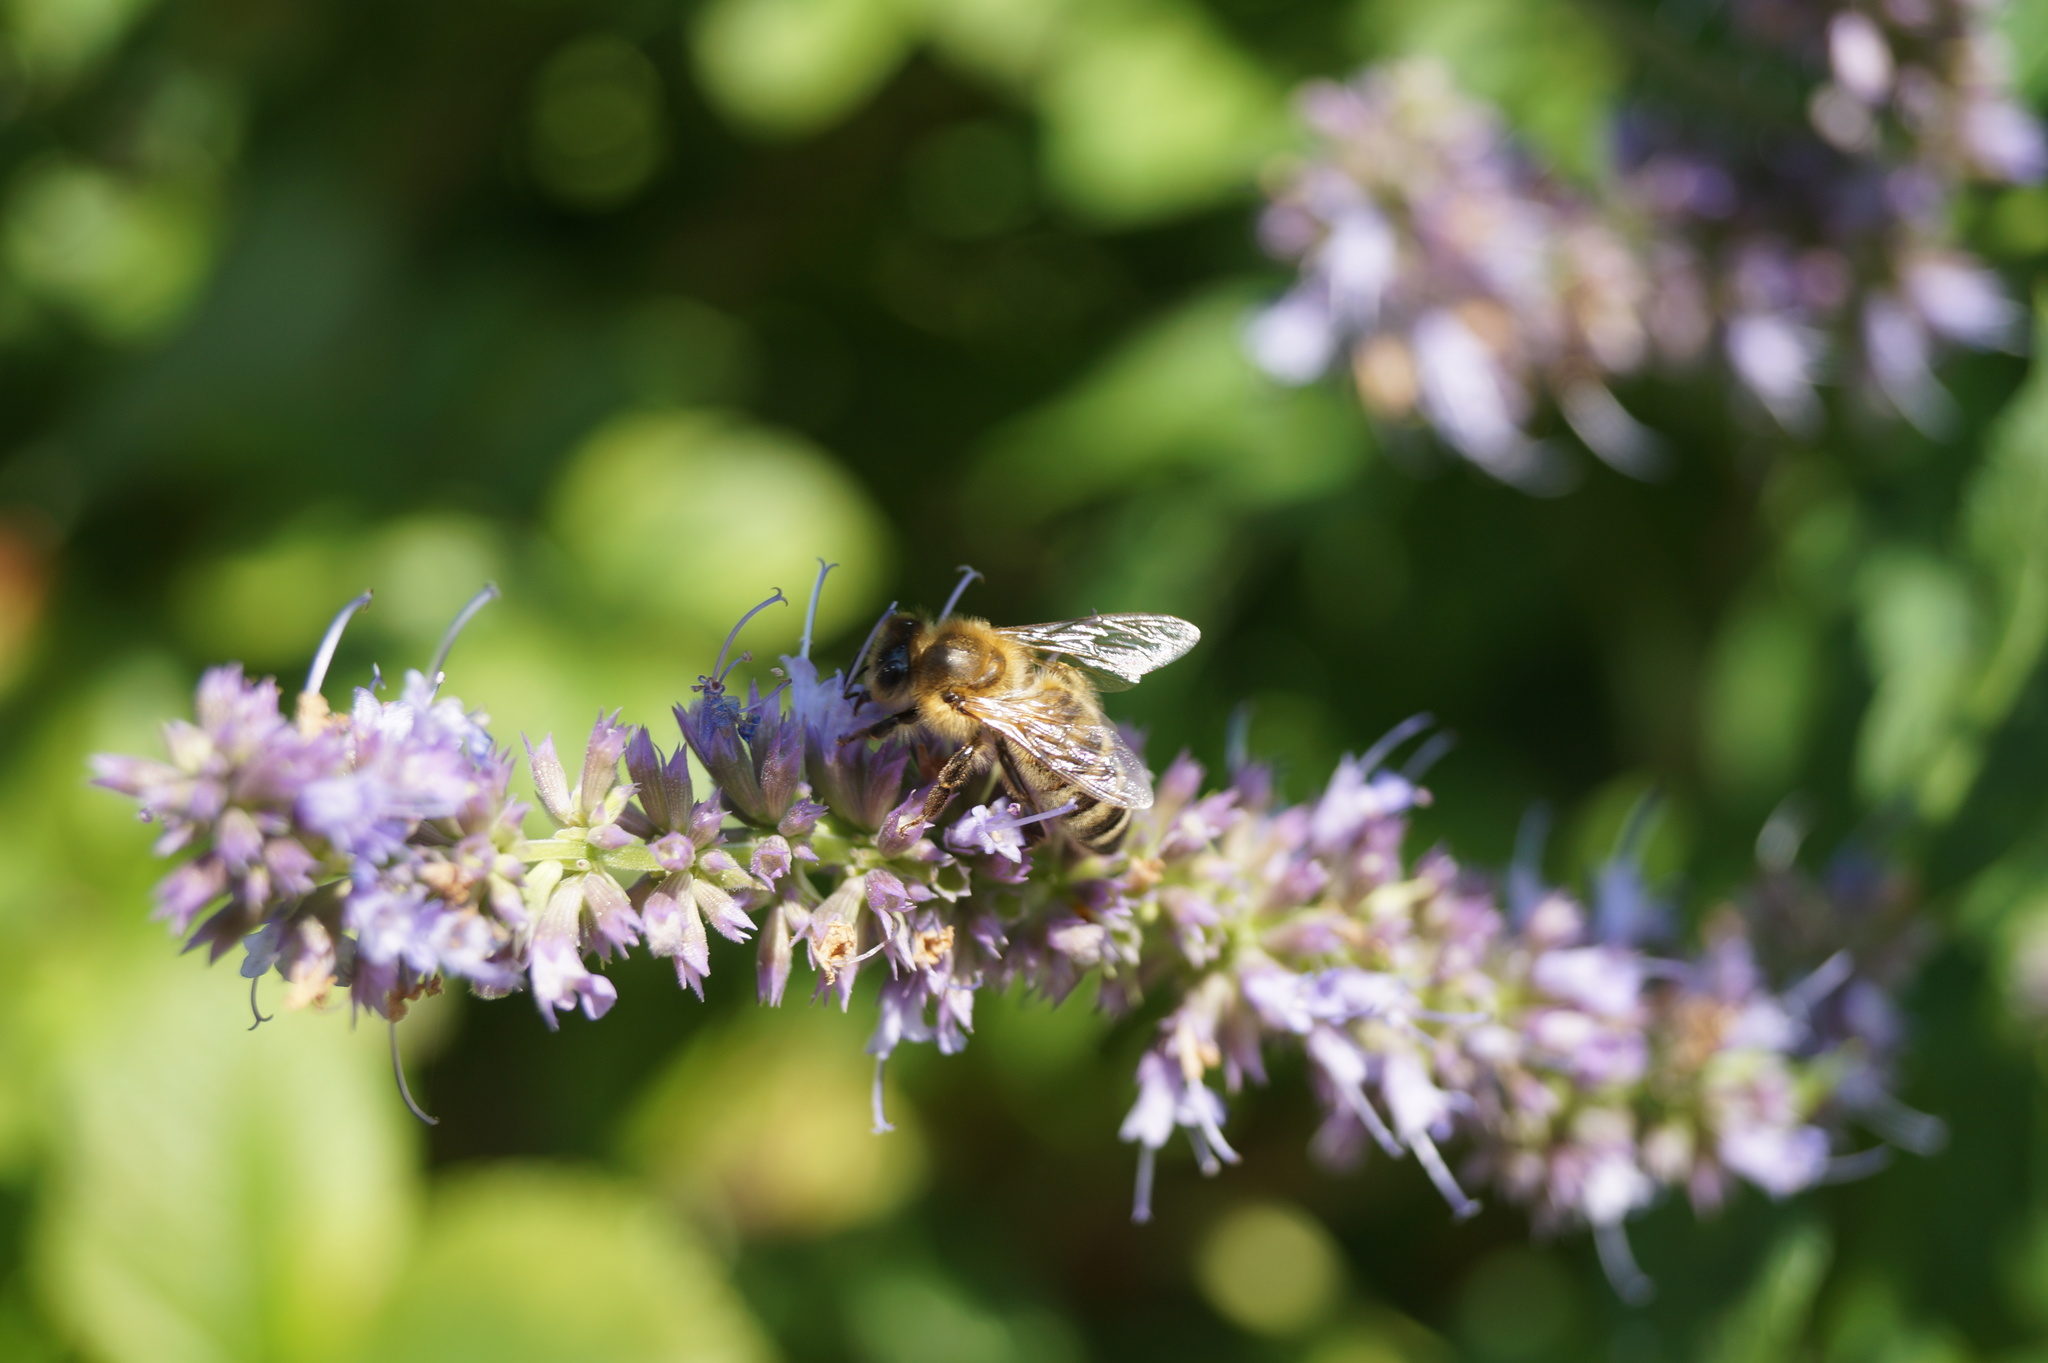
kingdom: Animalia
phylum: Arthropoda
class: Insecta
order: Hymenoptera
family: Apidae
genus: Apis
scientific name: Apis mellifera
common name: Honey bee
